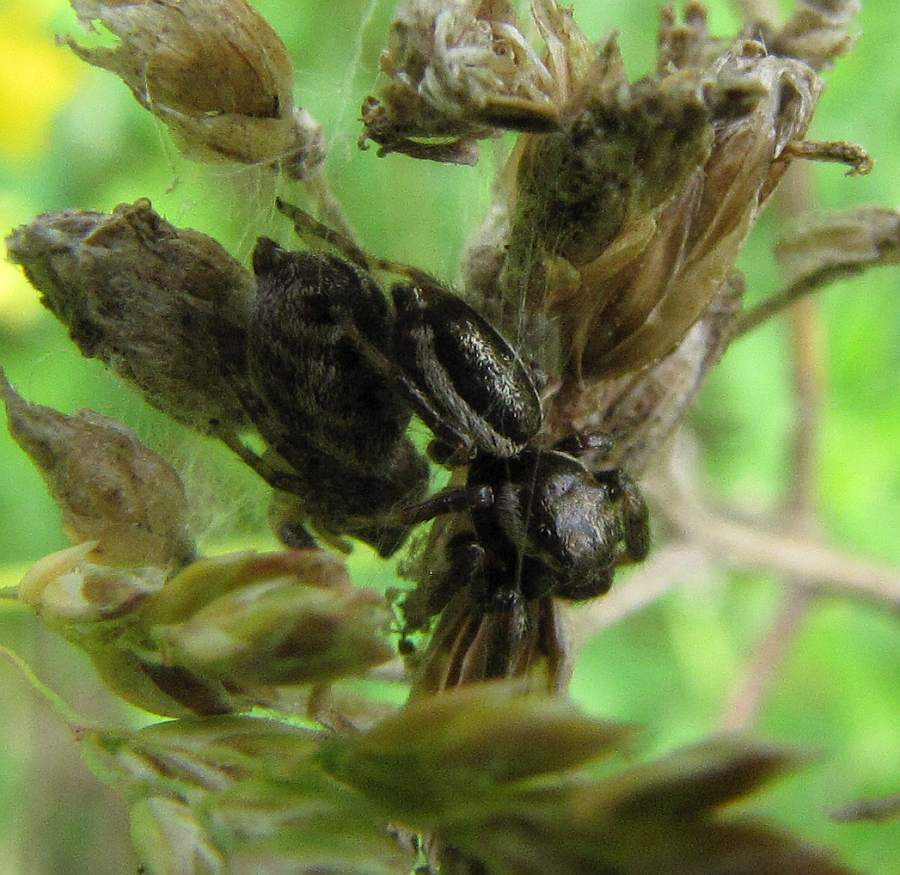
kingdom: Animalia
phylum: Arthropoda
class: Arachnida
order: Araneae
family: Salticidae
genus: Eris
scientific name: Eris militaris
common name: Bronze jumper
